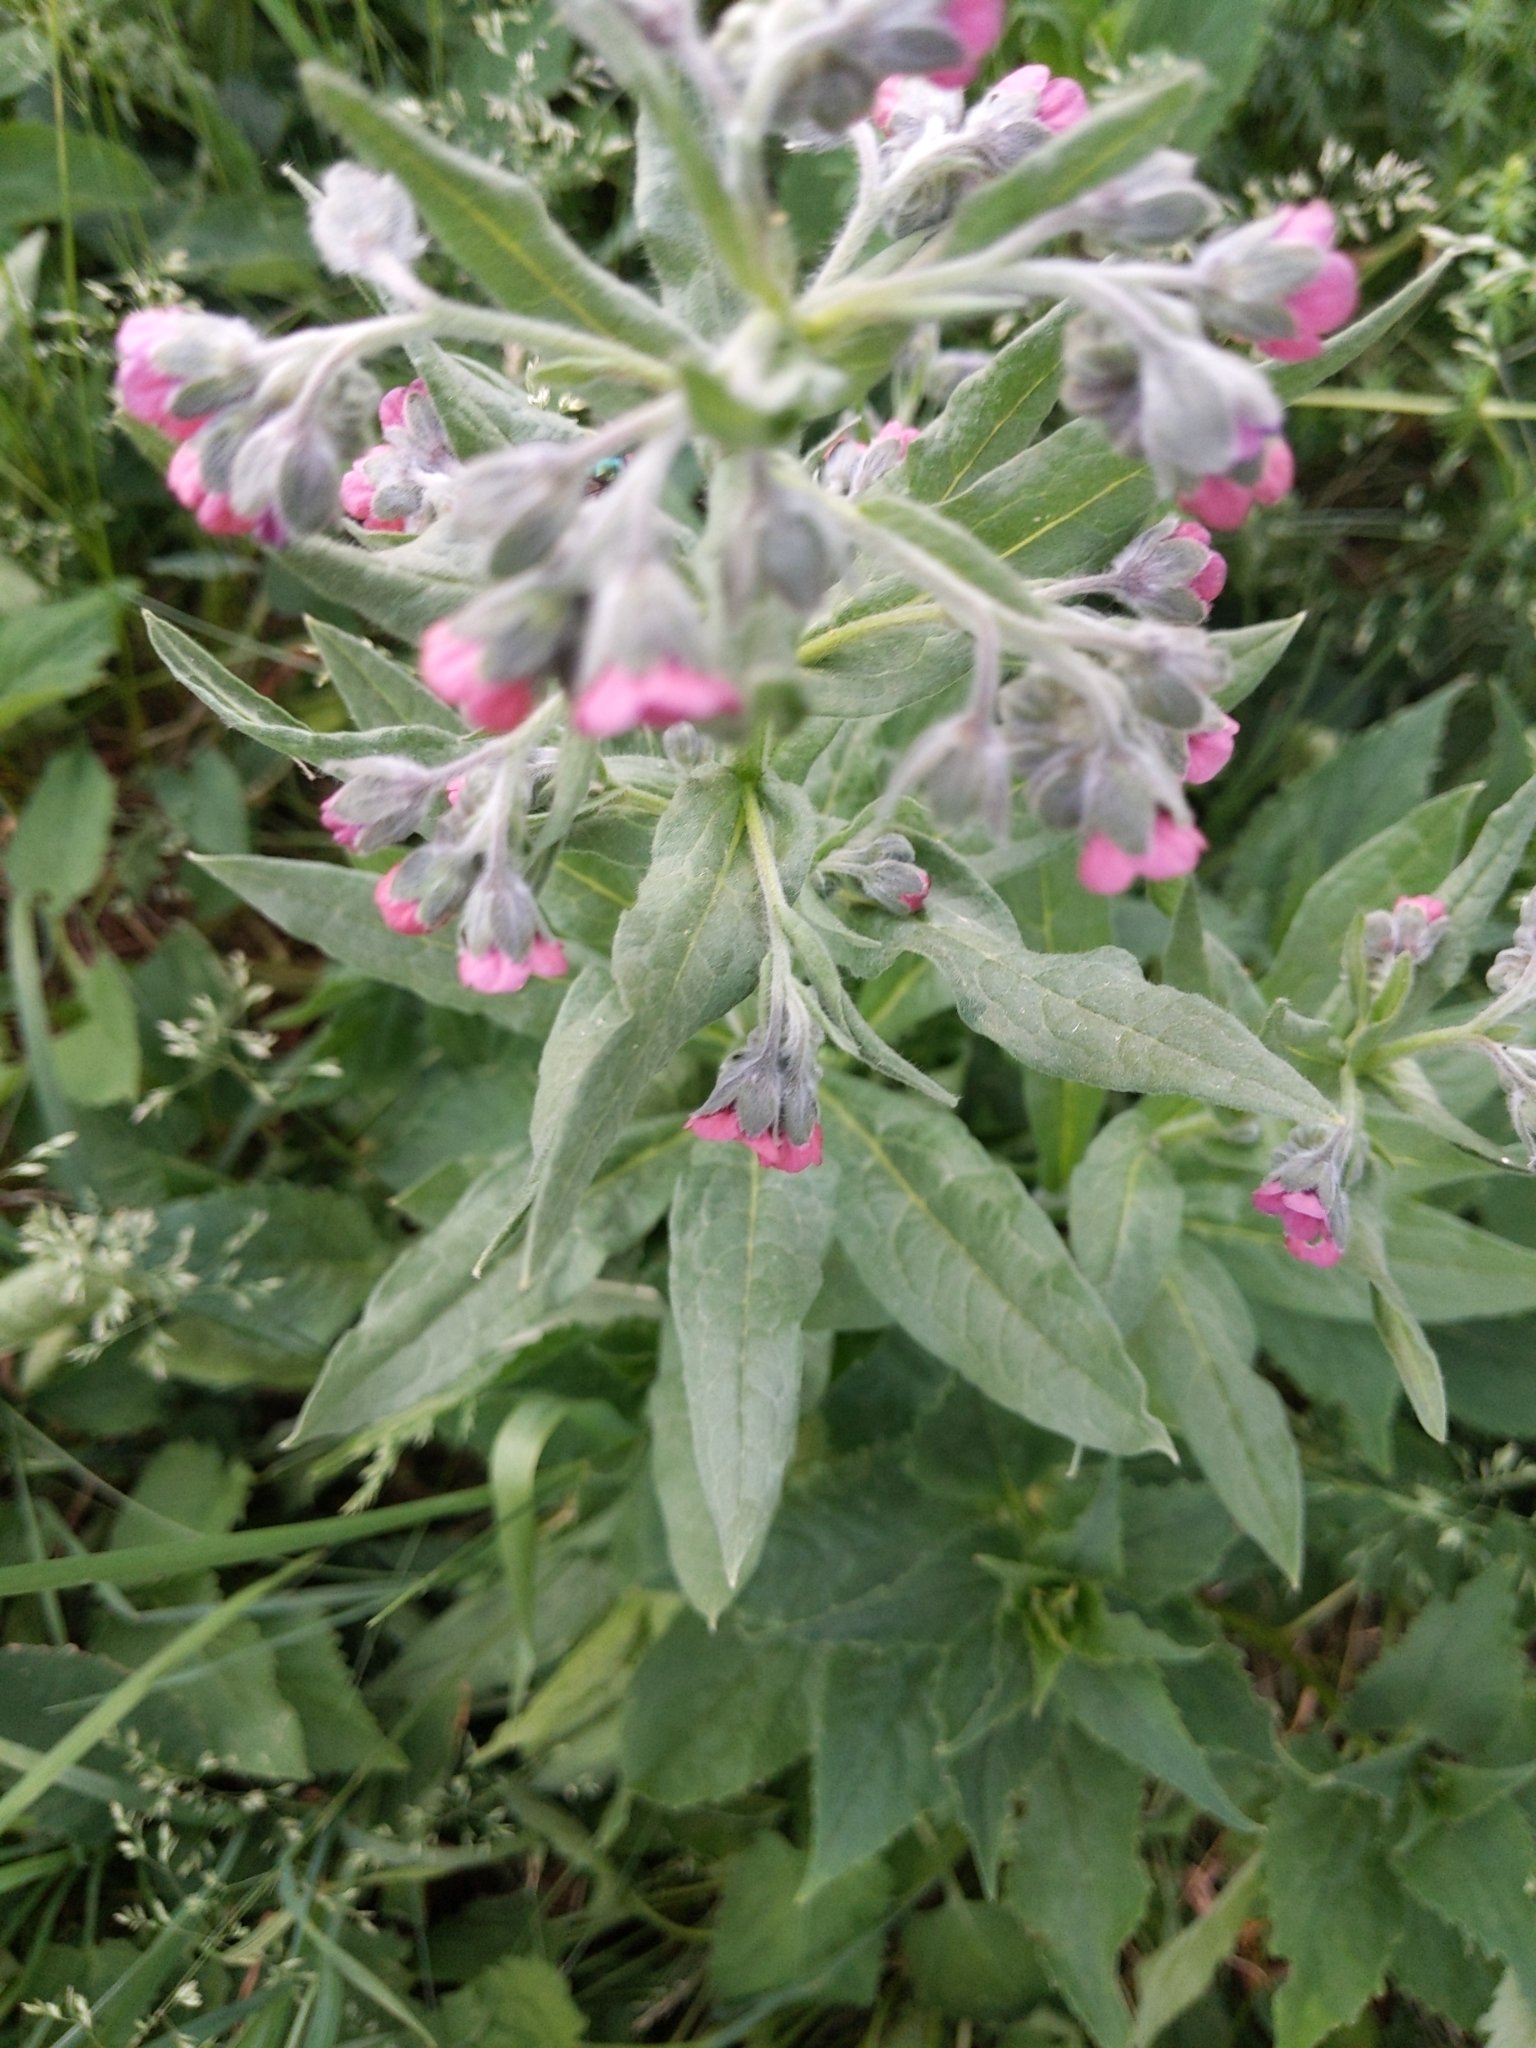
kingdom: Plantae
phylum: Tracheophyta
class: Magnoliopsida
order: Boraginales
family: Boraginaceae
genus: Cynoglossum
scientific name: Cynoglossum officinale
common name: Hound's-tongue
